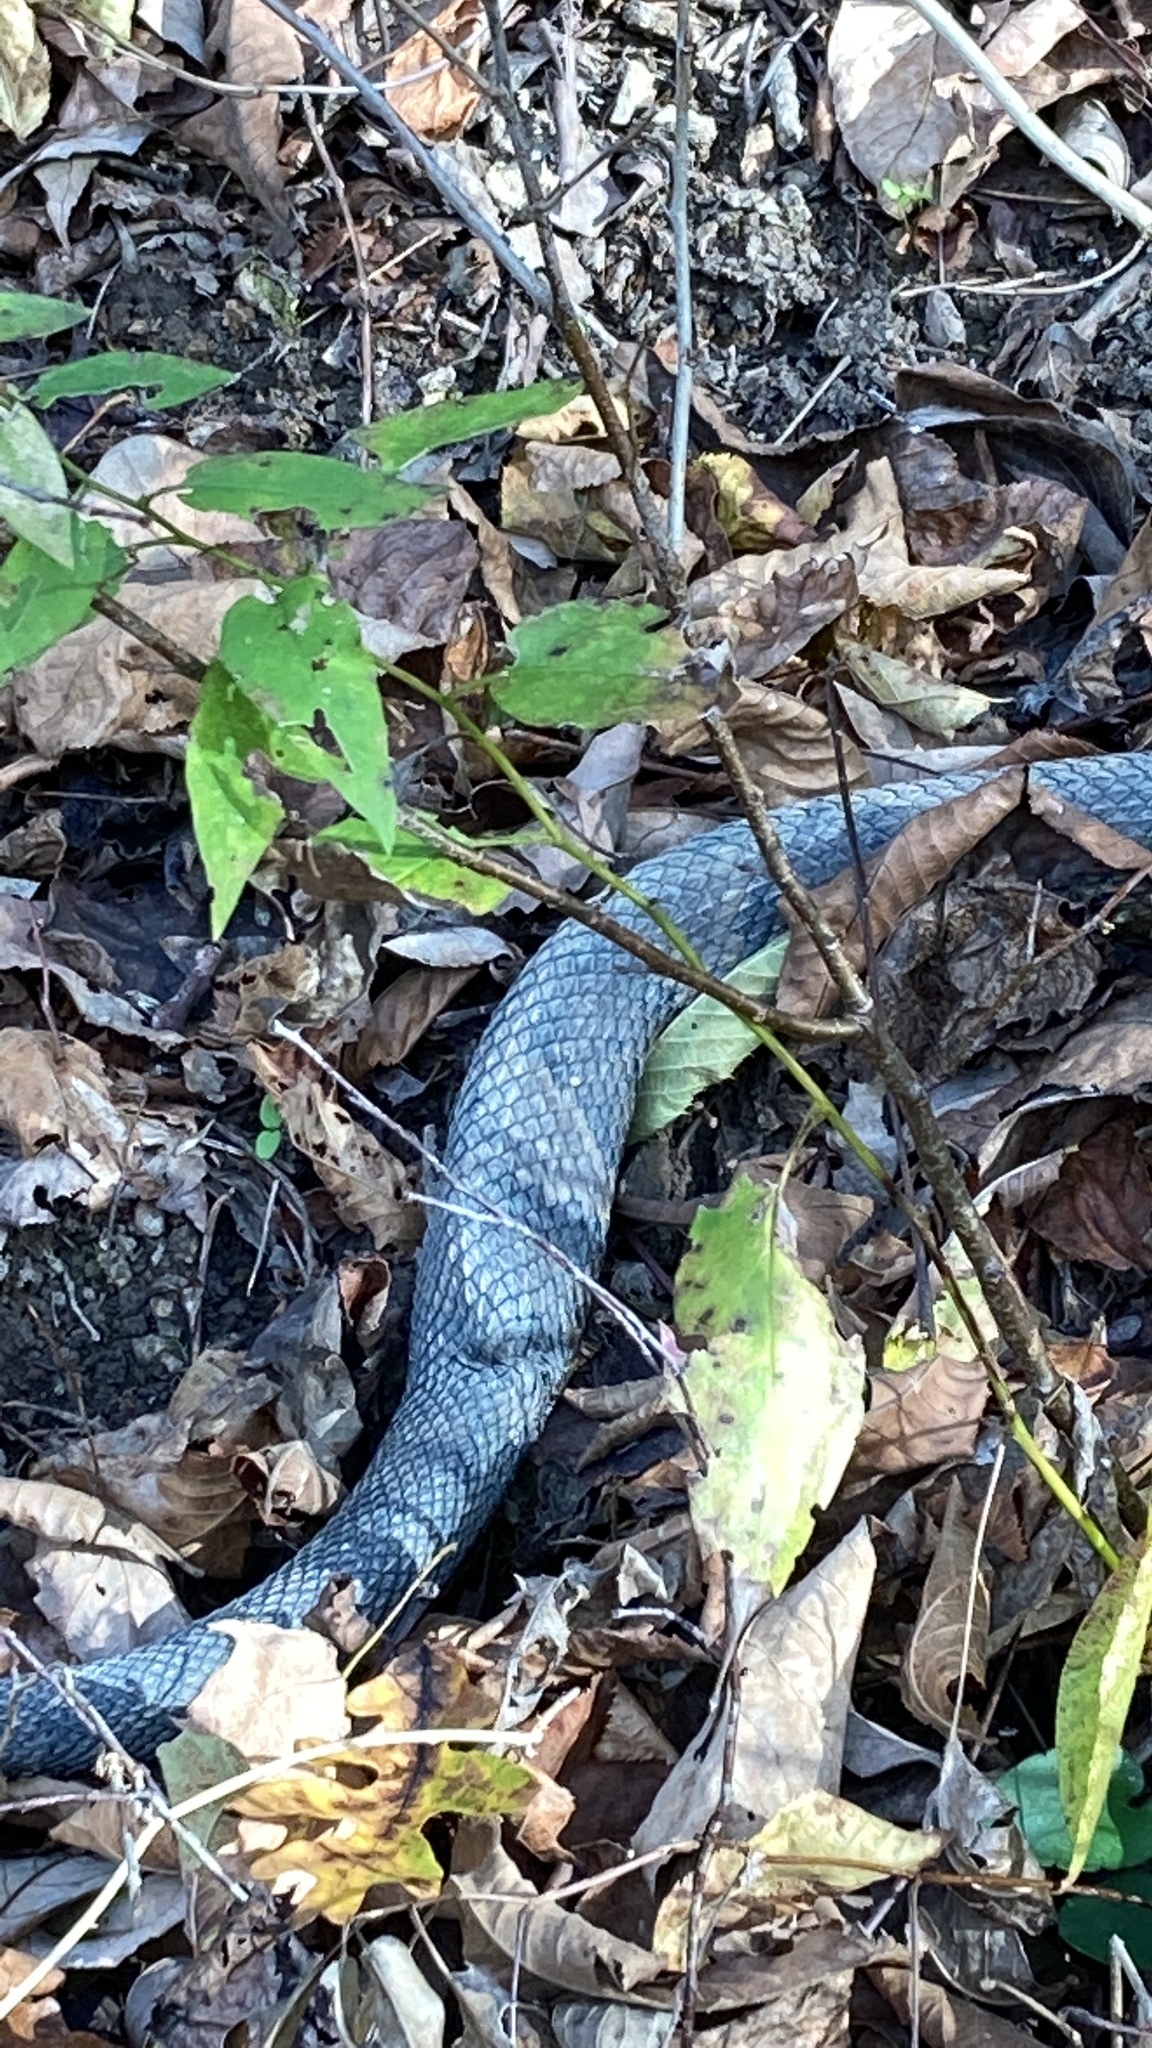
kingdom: Animalia
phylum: Chordata
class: Squamata
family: Viperidae
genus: Agkistrodon
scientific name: Agkistrodon piscivorus
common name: Cottonmouth
